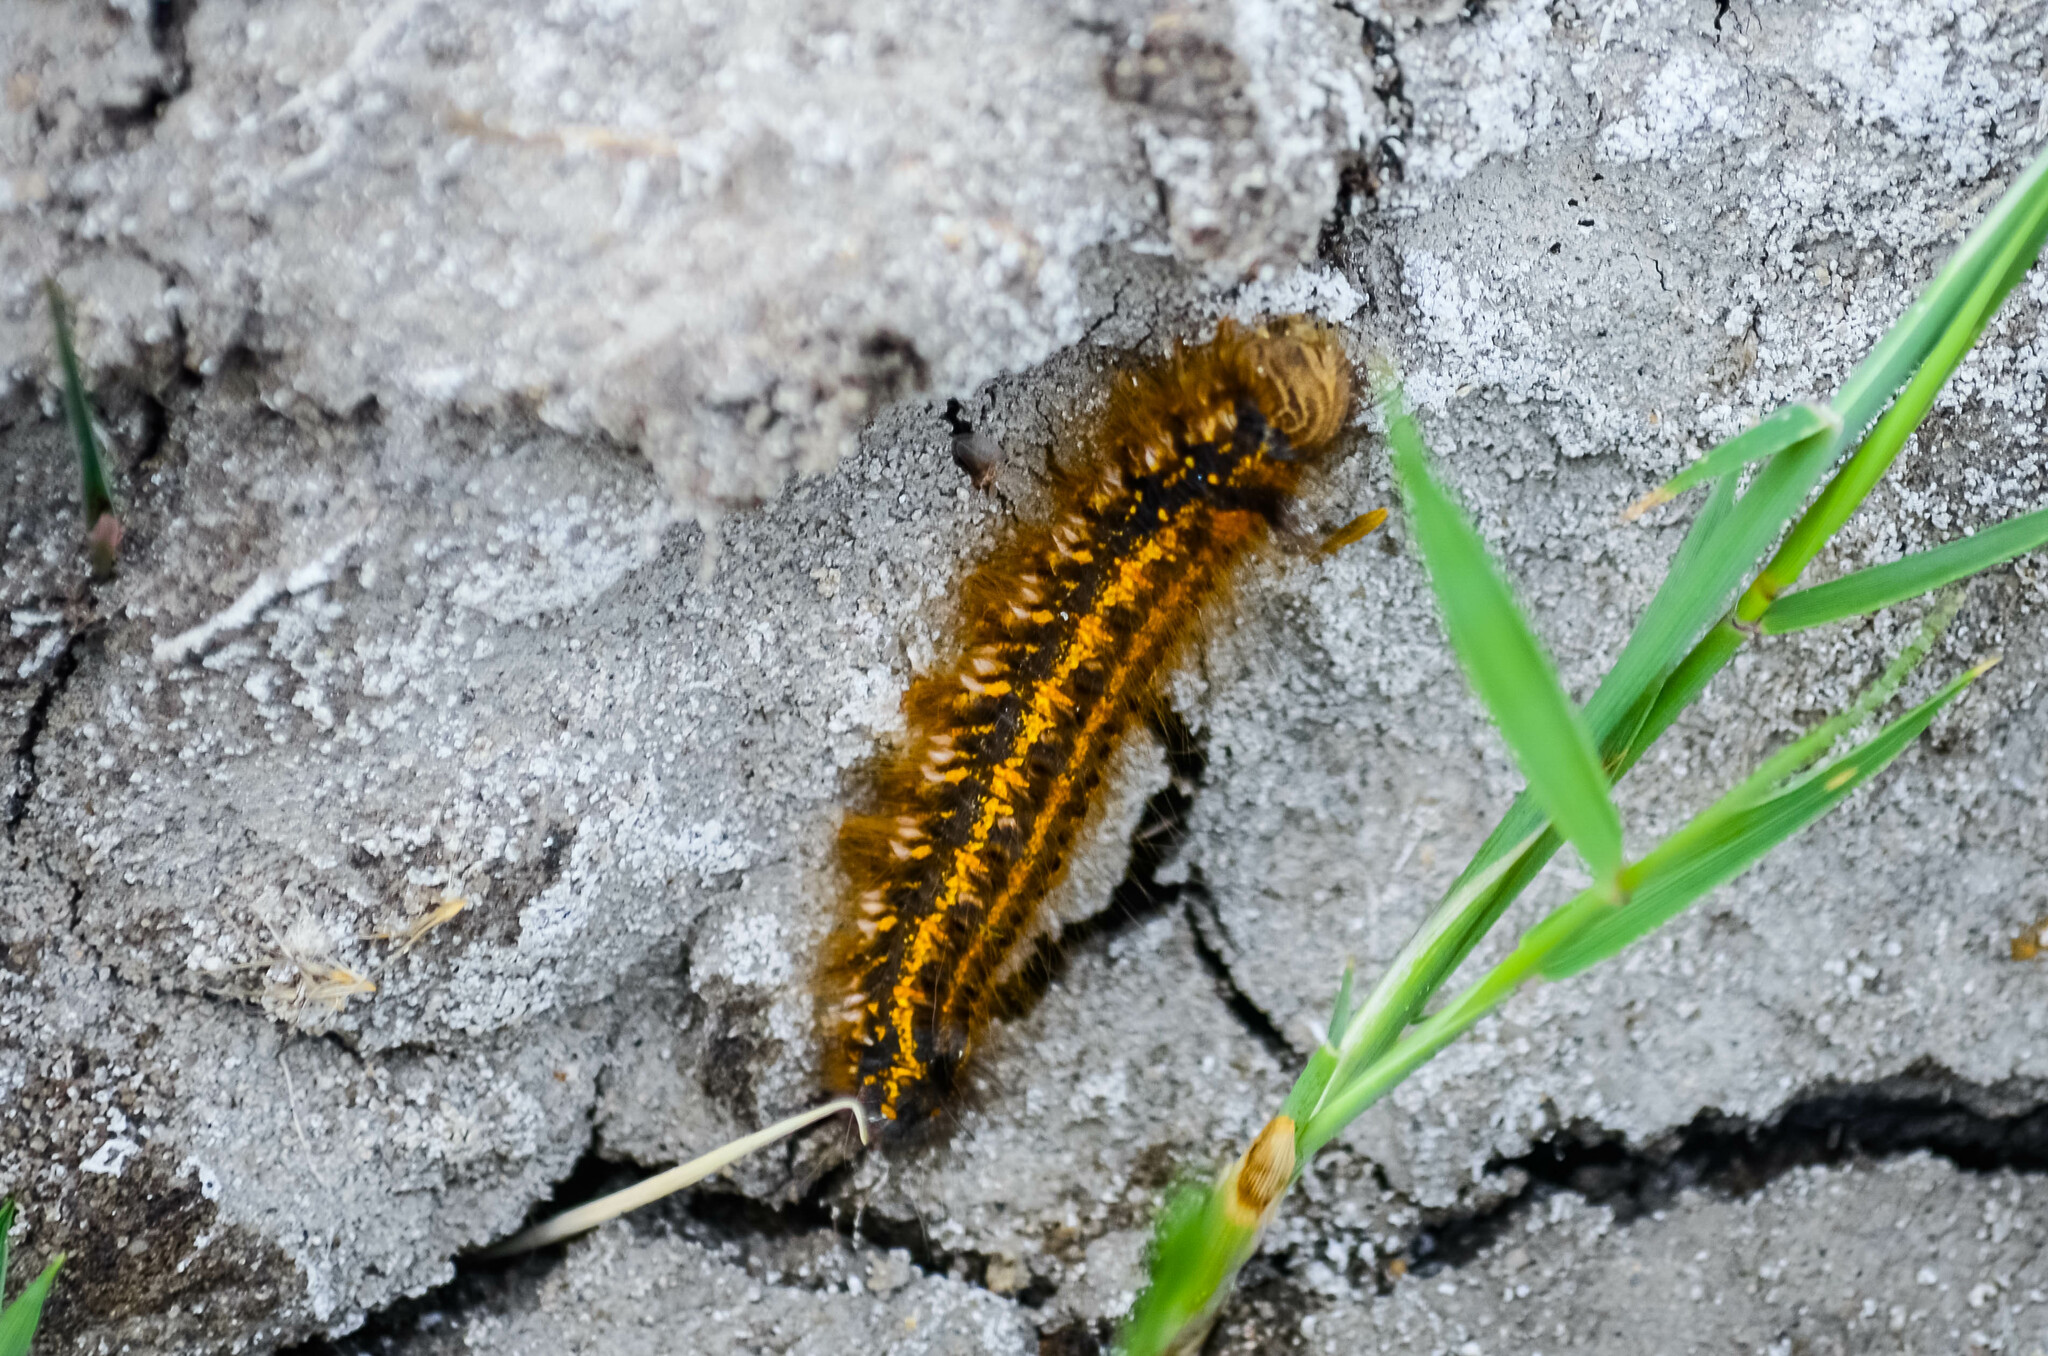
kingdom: Animalia
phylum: Arthropoda
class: Insecta
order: Lepidoptera
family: Lasiocampidae
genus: Euthrix
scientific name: Euthrix potatoria
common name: Drinker
